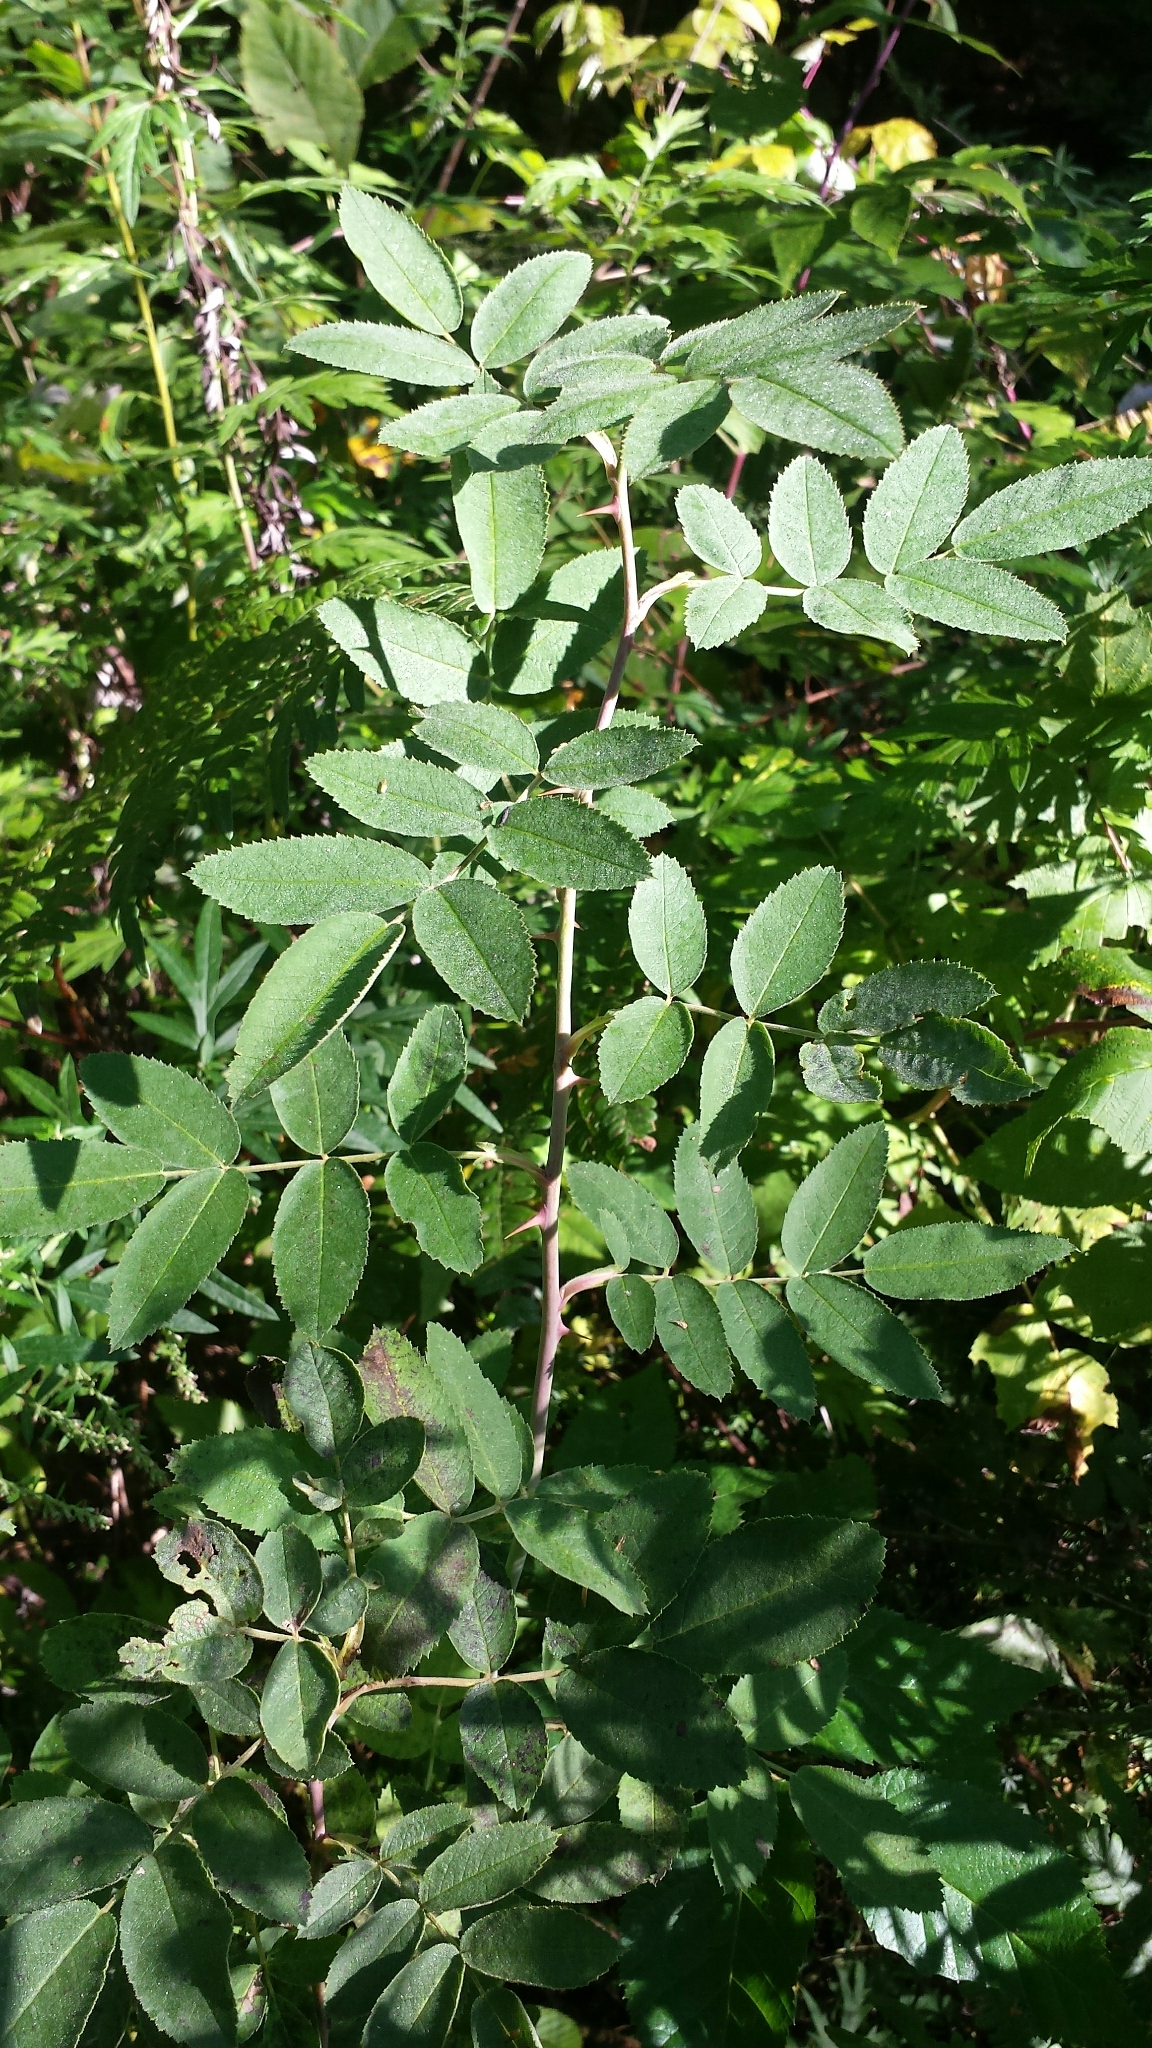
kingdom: Plantae
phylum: Tracheophyta
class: Magnoliopsida
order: Rosales
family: Rosaceae
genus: Rosa
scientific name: Rosa sherardii
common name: Sherard's downy rose
